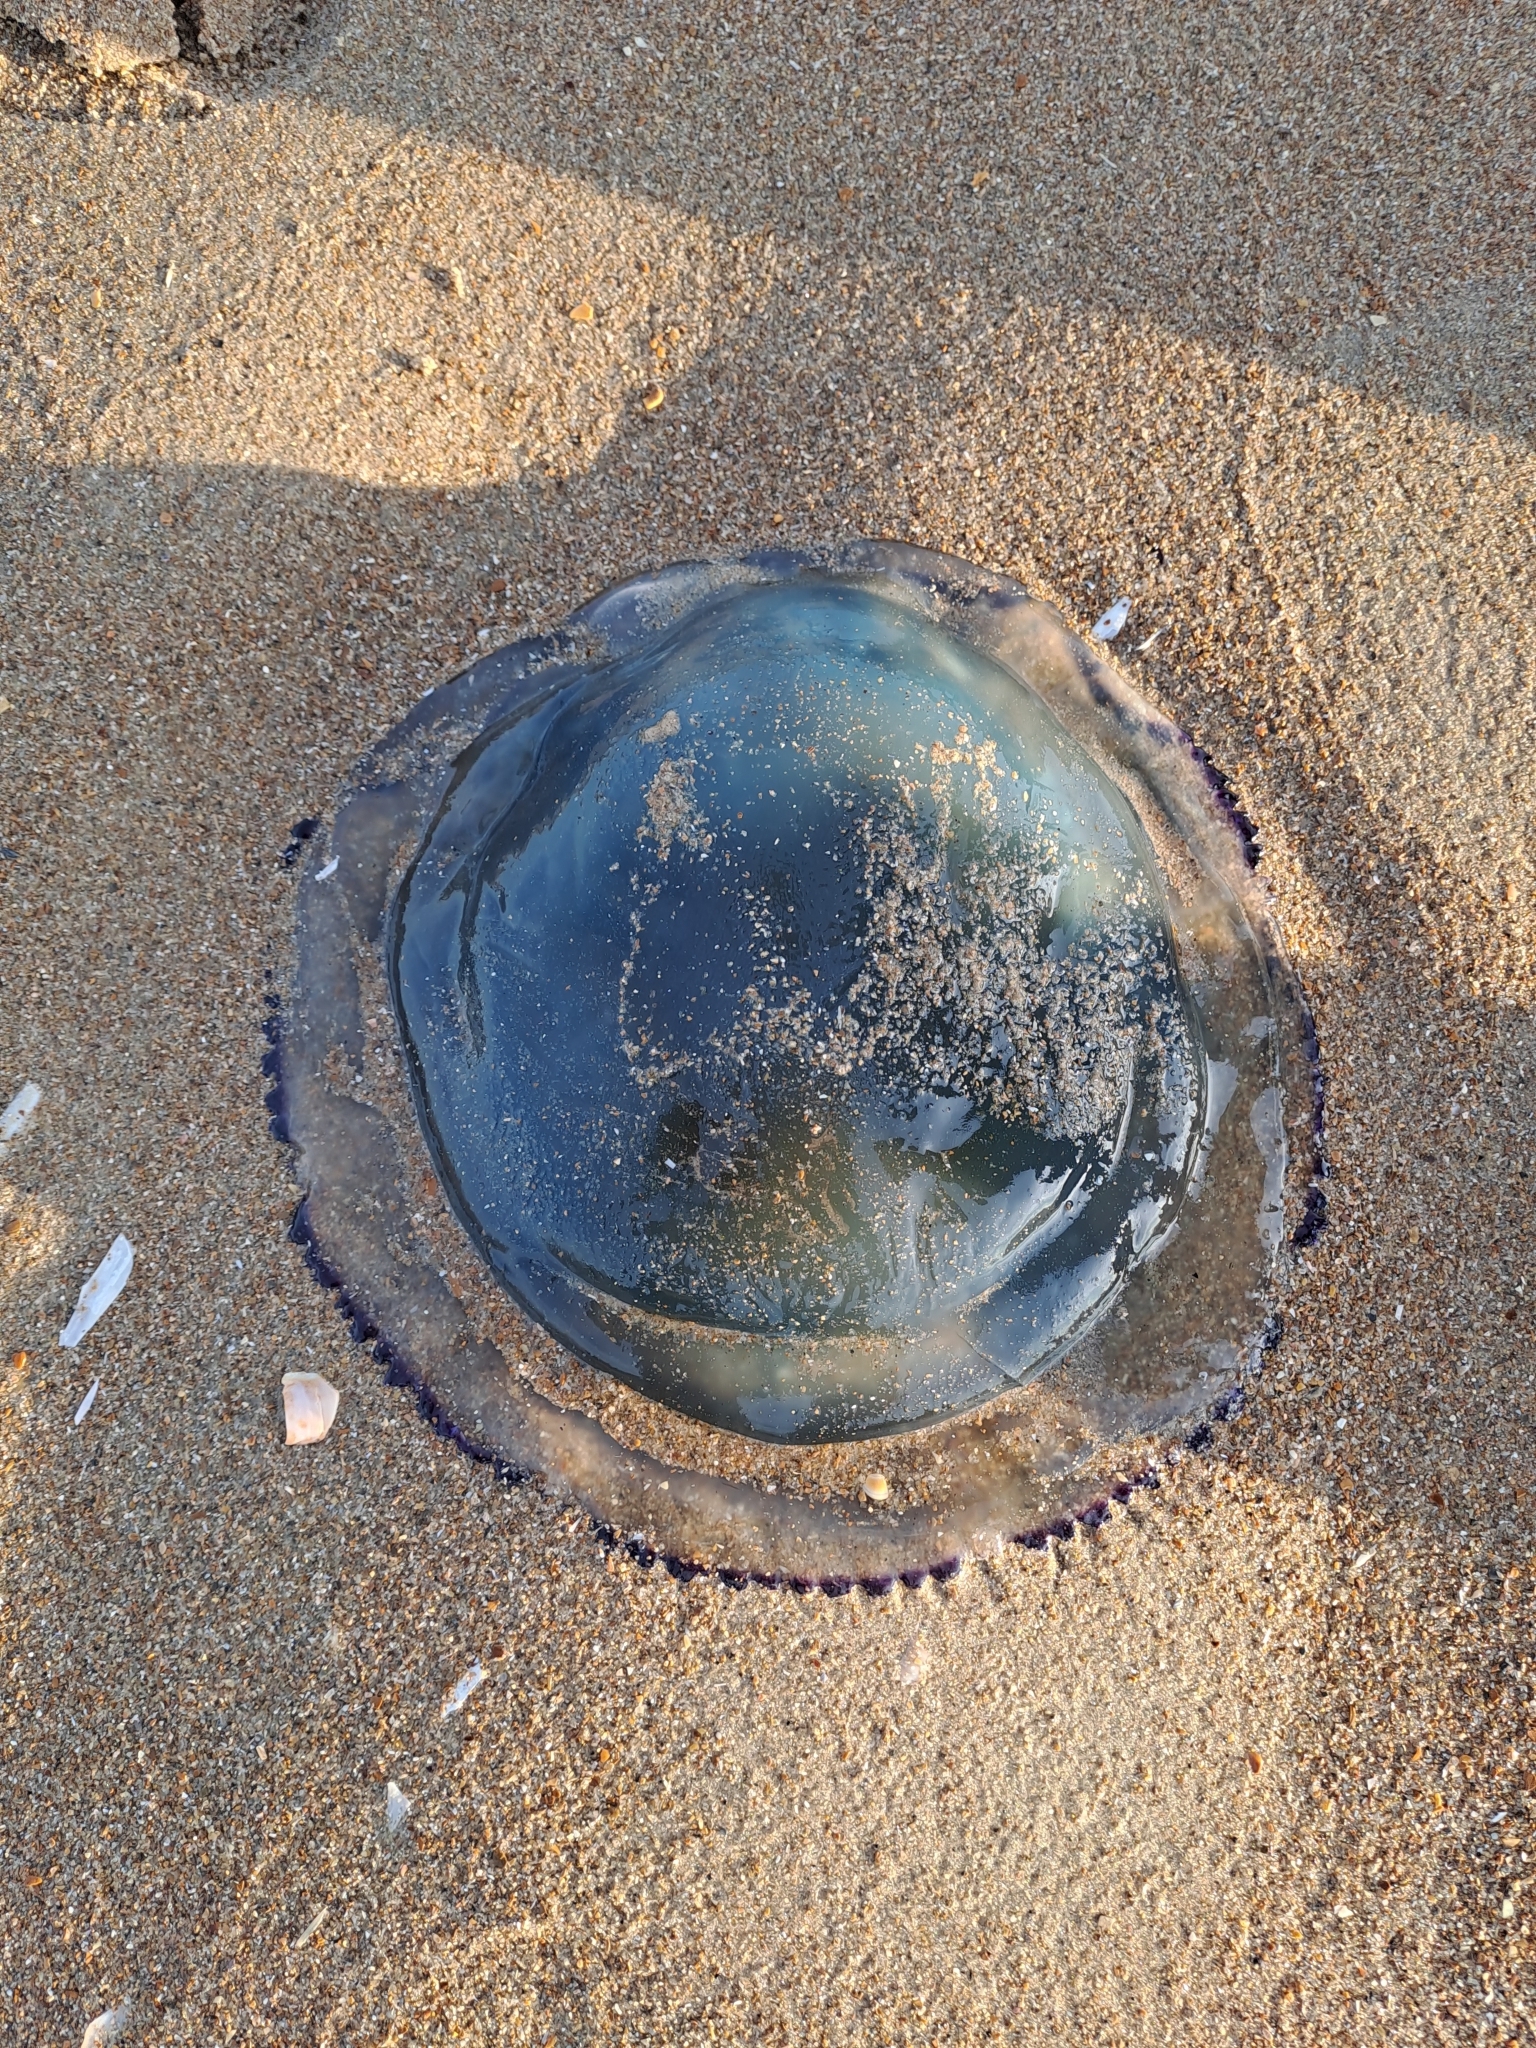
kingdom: Animalia
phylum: Cnidaria
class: Scyphozoa
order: Rhizostomeae
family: Rhizostomatidae
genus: Rhizostoma
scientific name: Rhizostoma octopus
